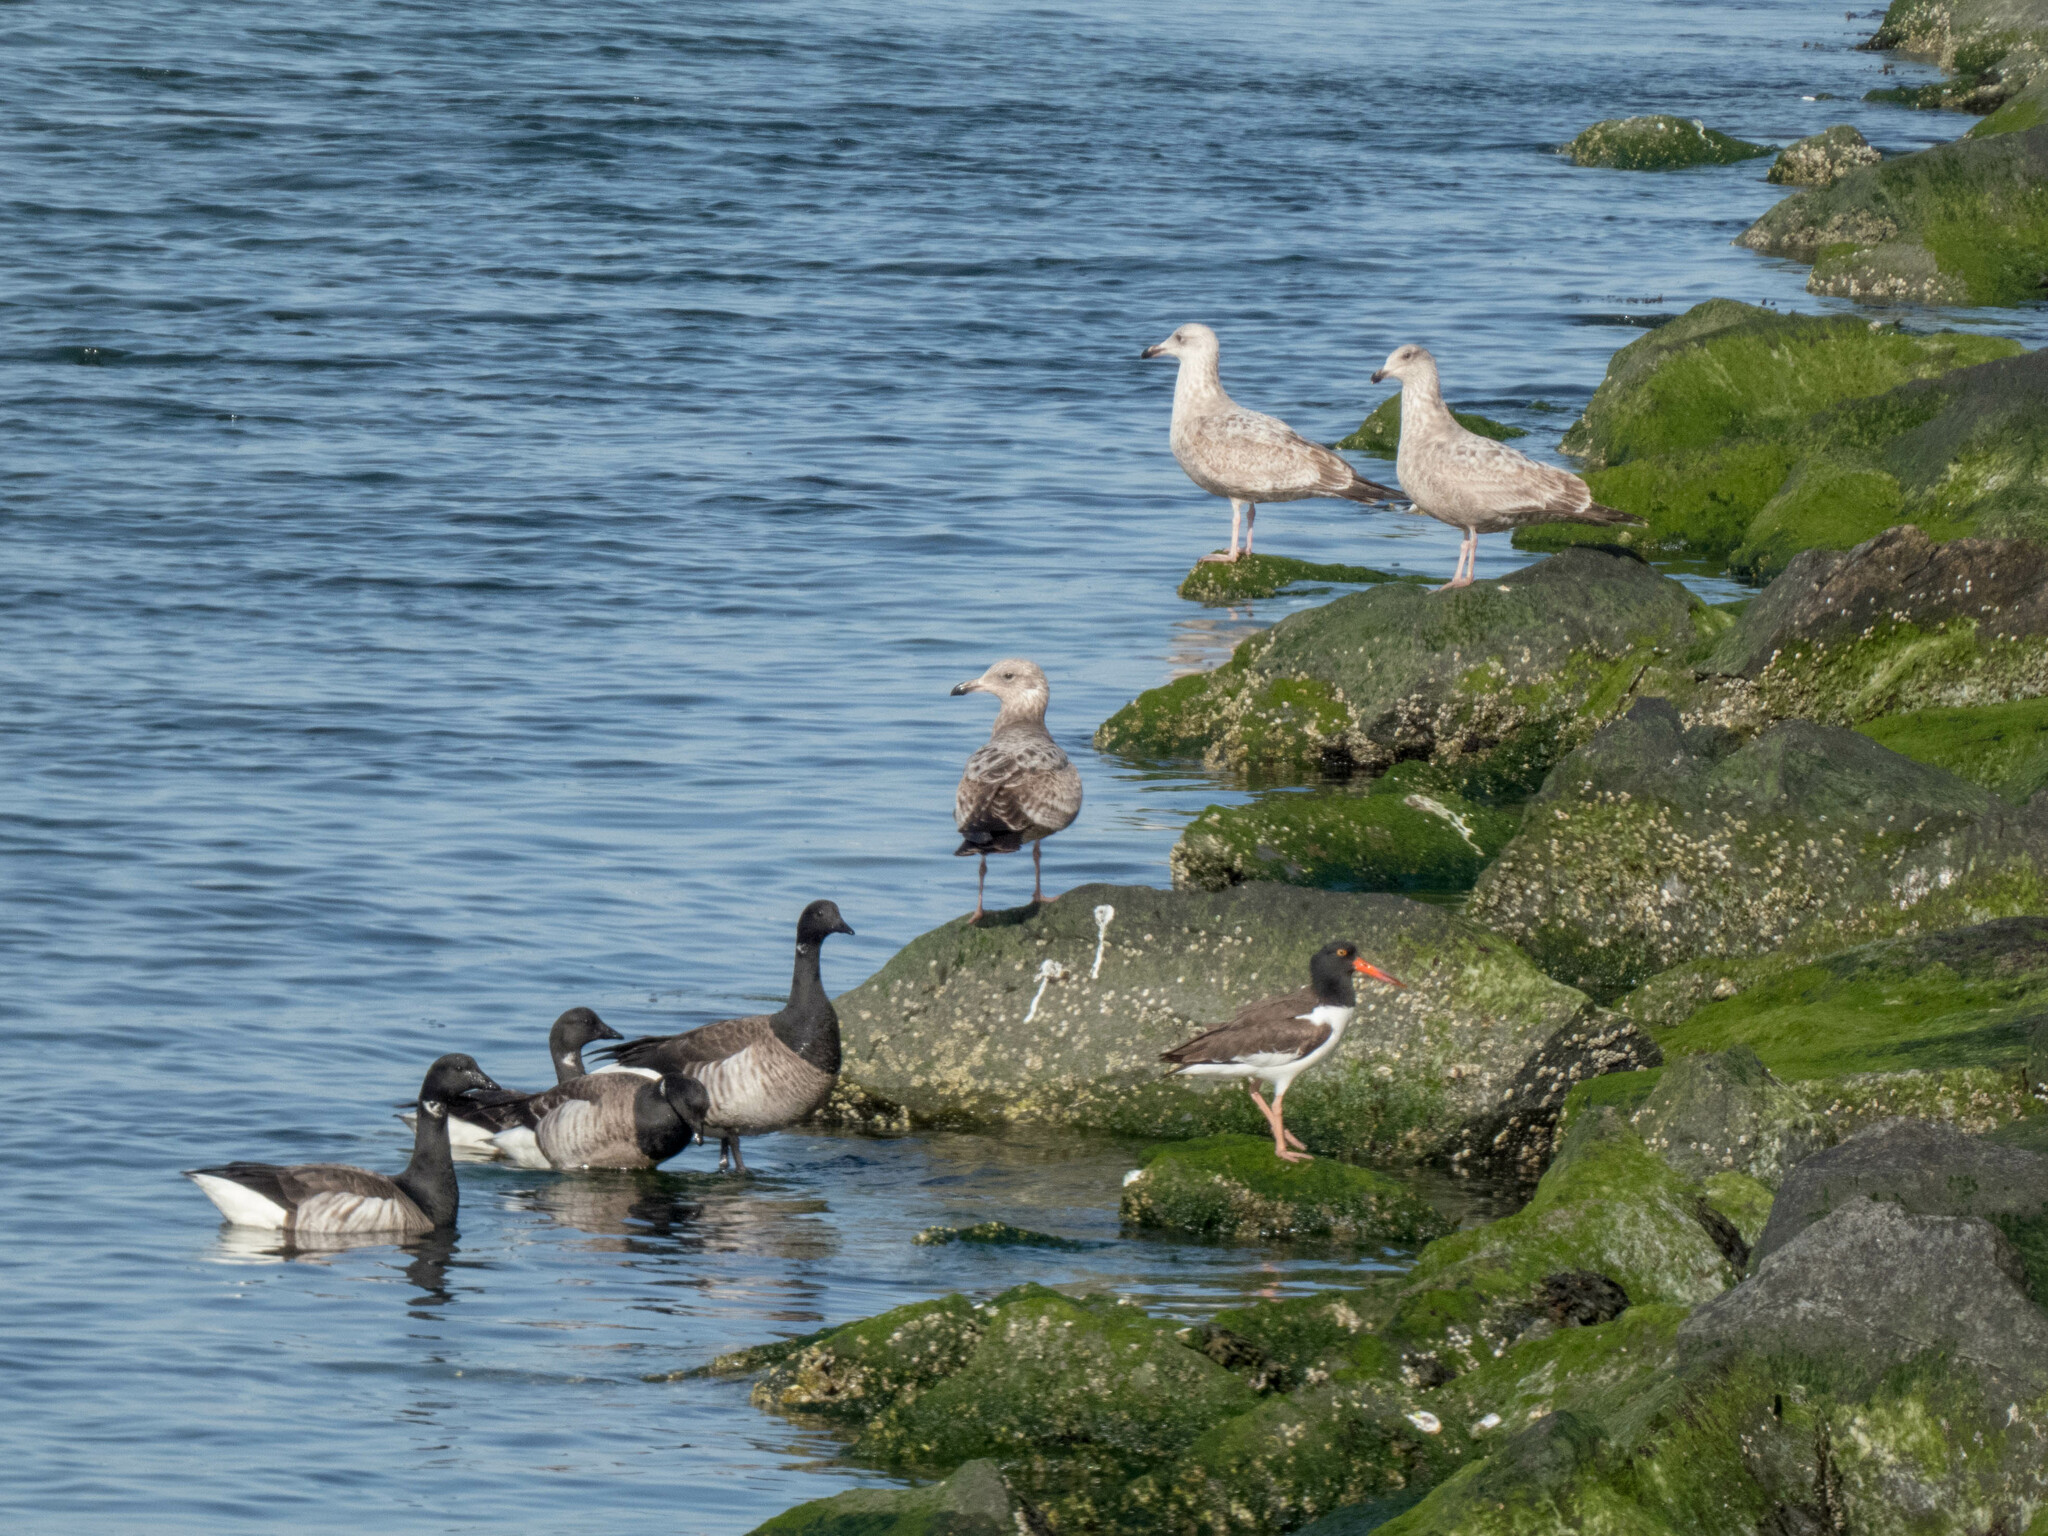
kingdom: Animalia
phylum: Chordata
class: Aves
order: Anseriformes
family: Anatidae
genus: Branta
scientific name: Branta bernicla
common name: Brant goose
